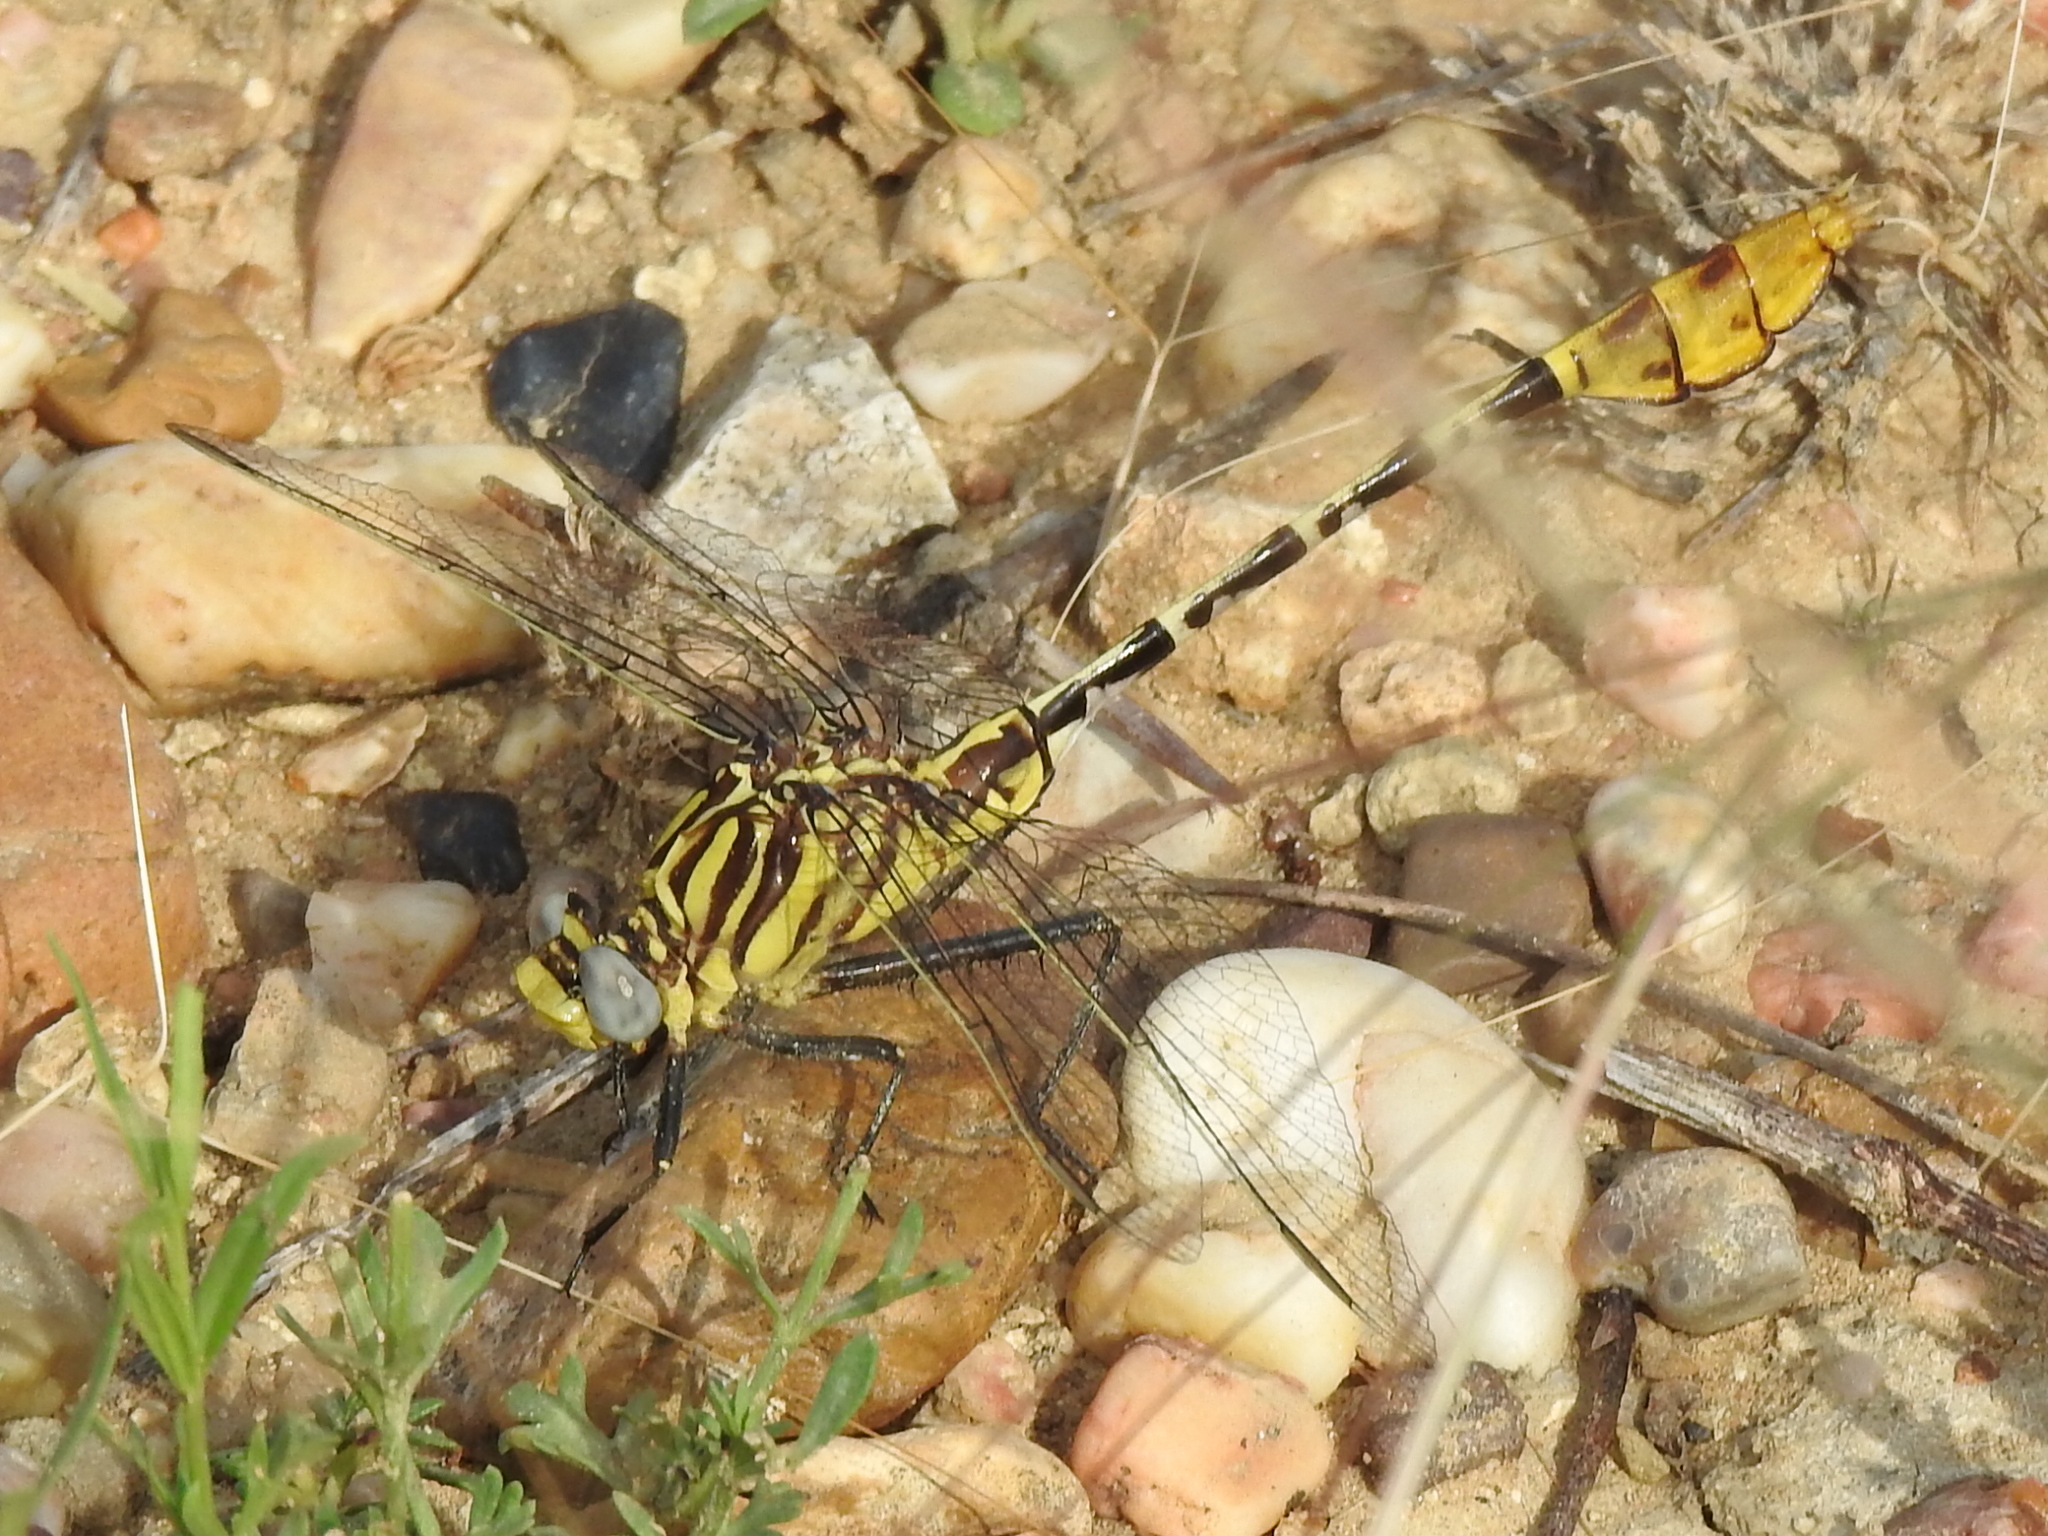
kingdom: Animalia
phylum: Arthropoda
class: Insecta
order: Odonata
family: Gomphidae
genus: Dromogomphus
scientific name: Dromogomphus spoliatus
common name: Flag-tailed spinyleg
